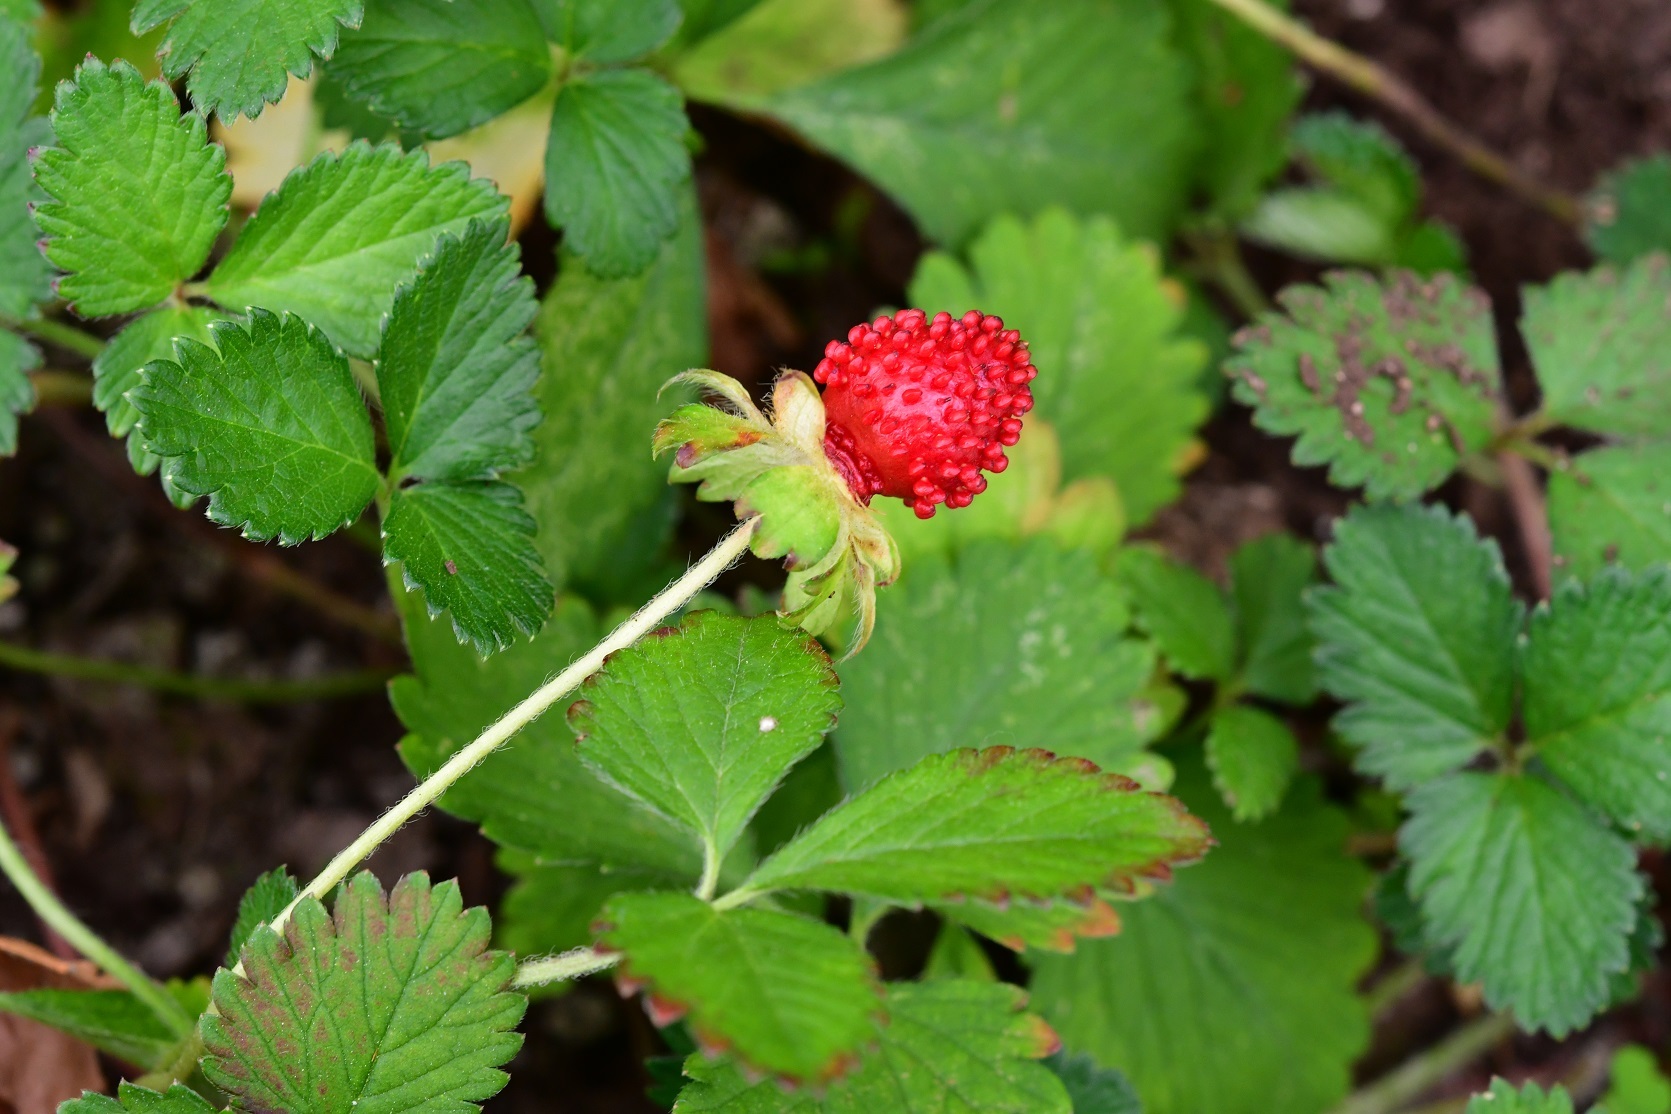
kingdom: Plantae
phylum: Tracheophyta
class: Magnoliopsida
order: Rosales
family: Rosaceae
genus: Potentilla
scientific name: Potentilla indica
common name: Yellow-flowered strawberry
